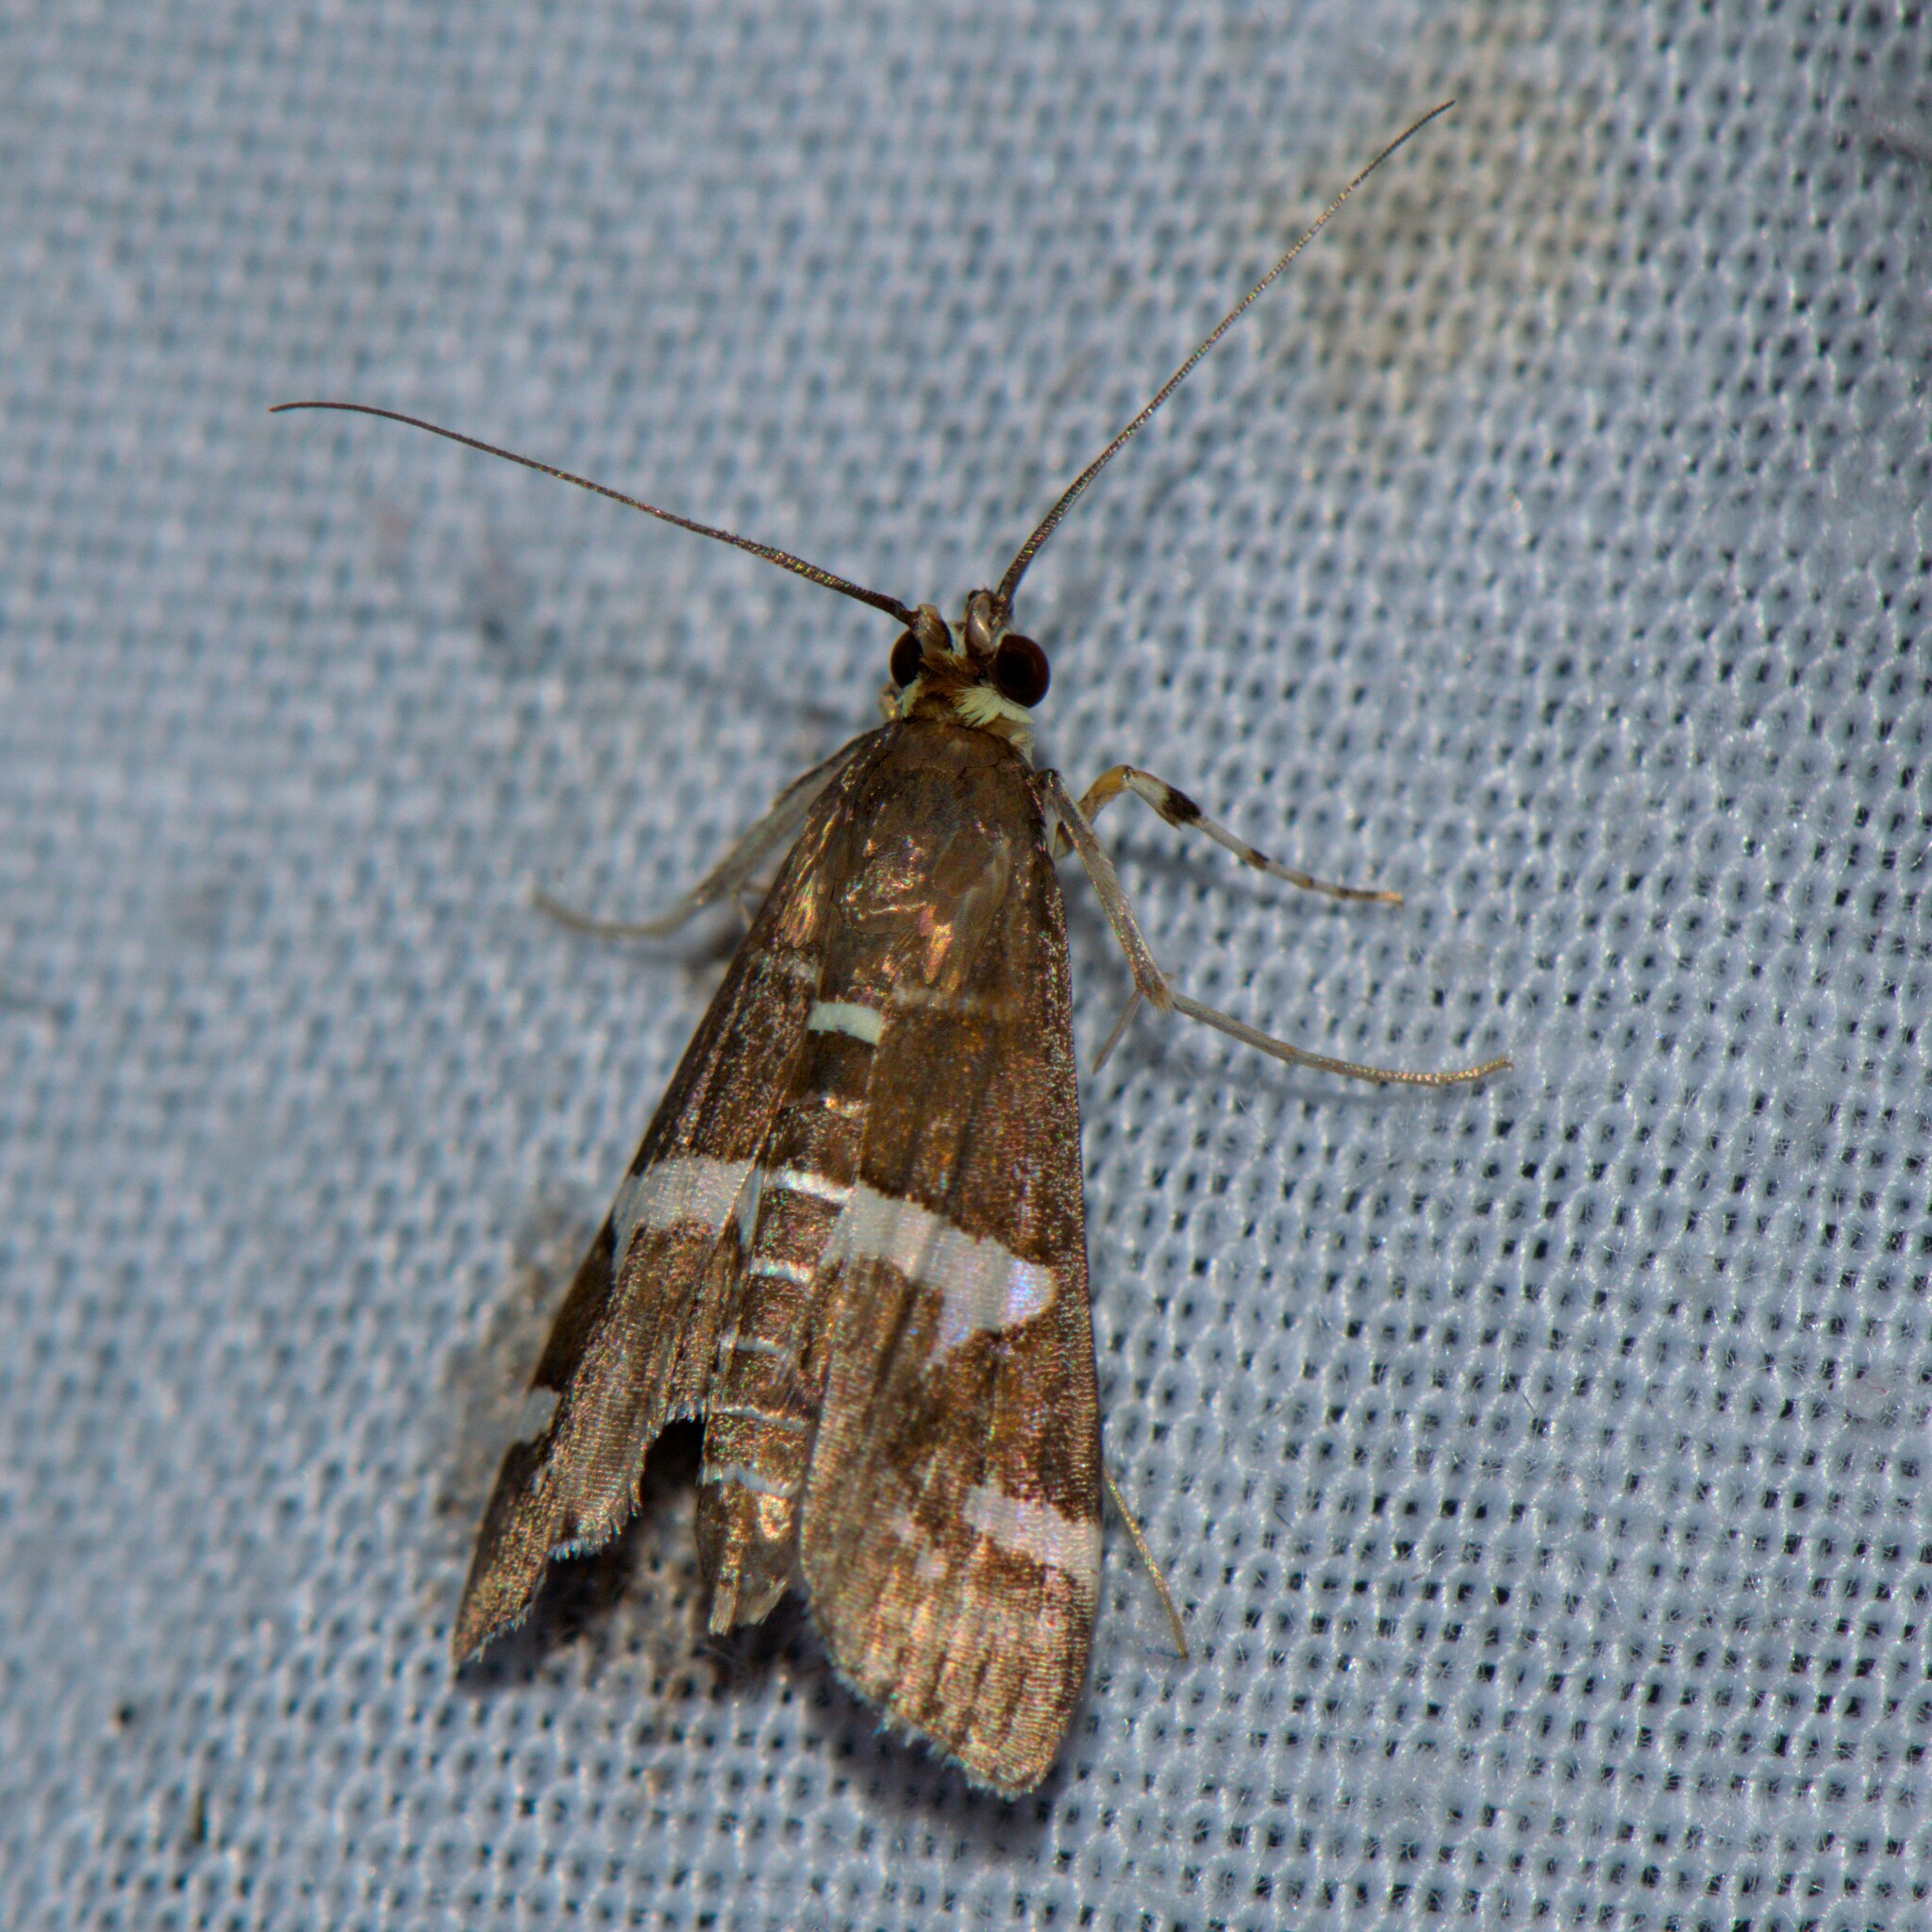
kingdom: Animalia
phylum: Arthropoda
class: Insecta
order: Lepidoptera
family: Crambidae
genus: Spoladea
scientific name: Spoladea recurvalis
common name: Beet webworm moth
